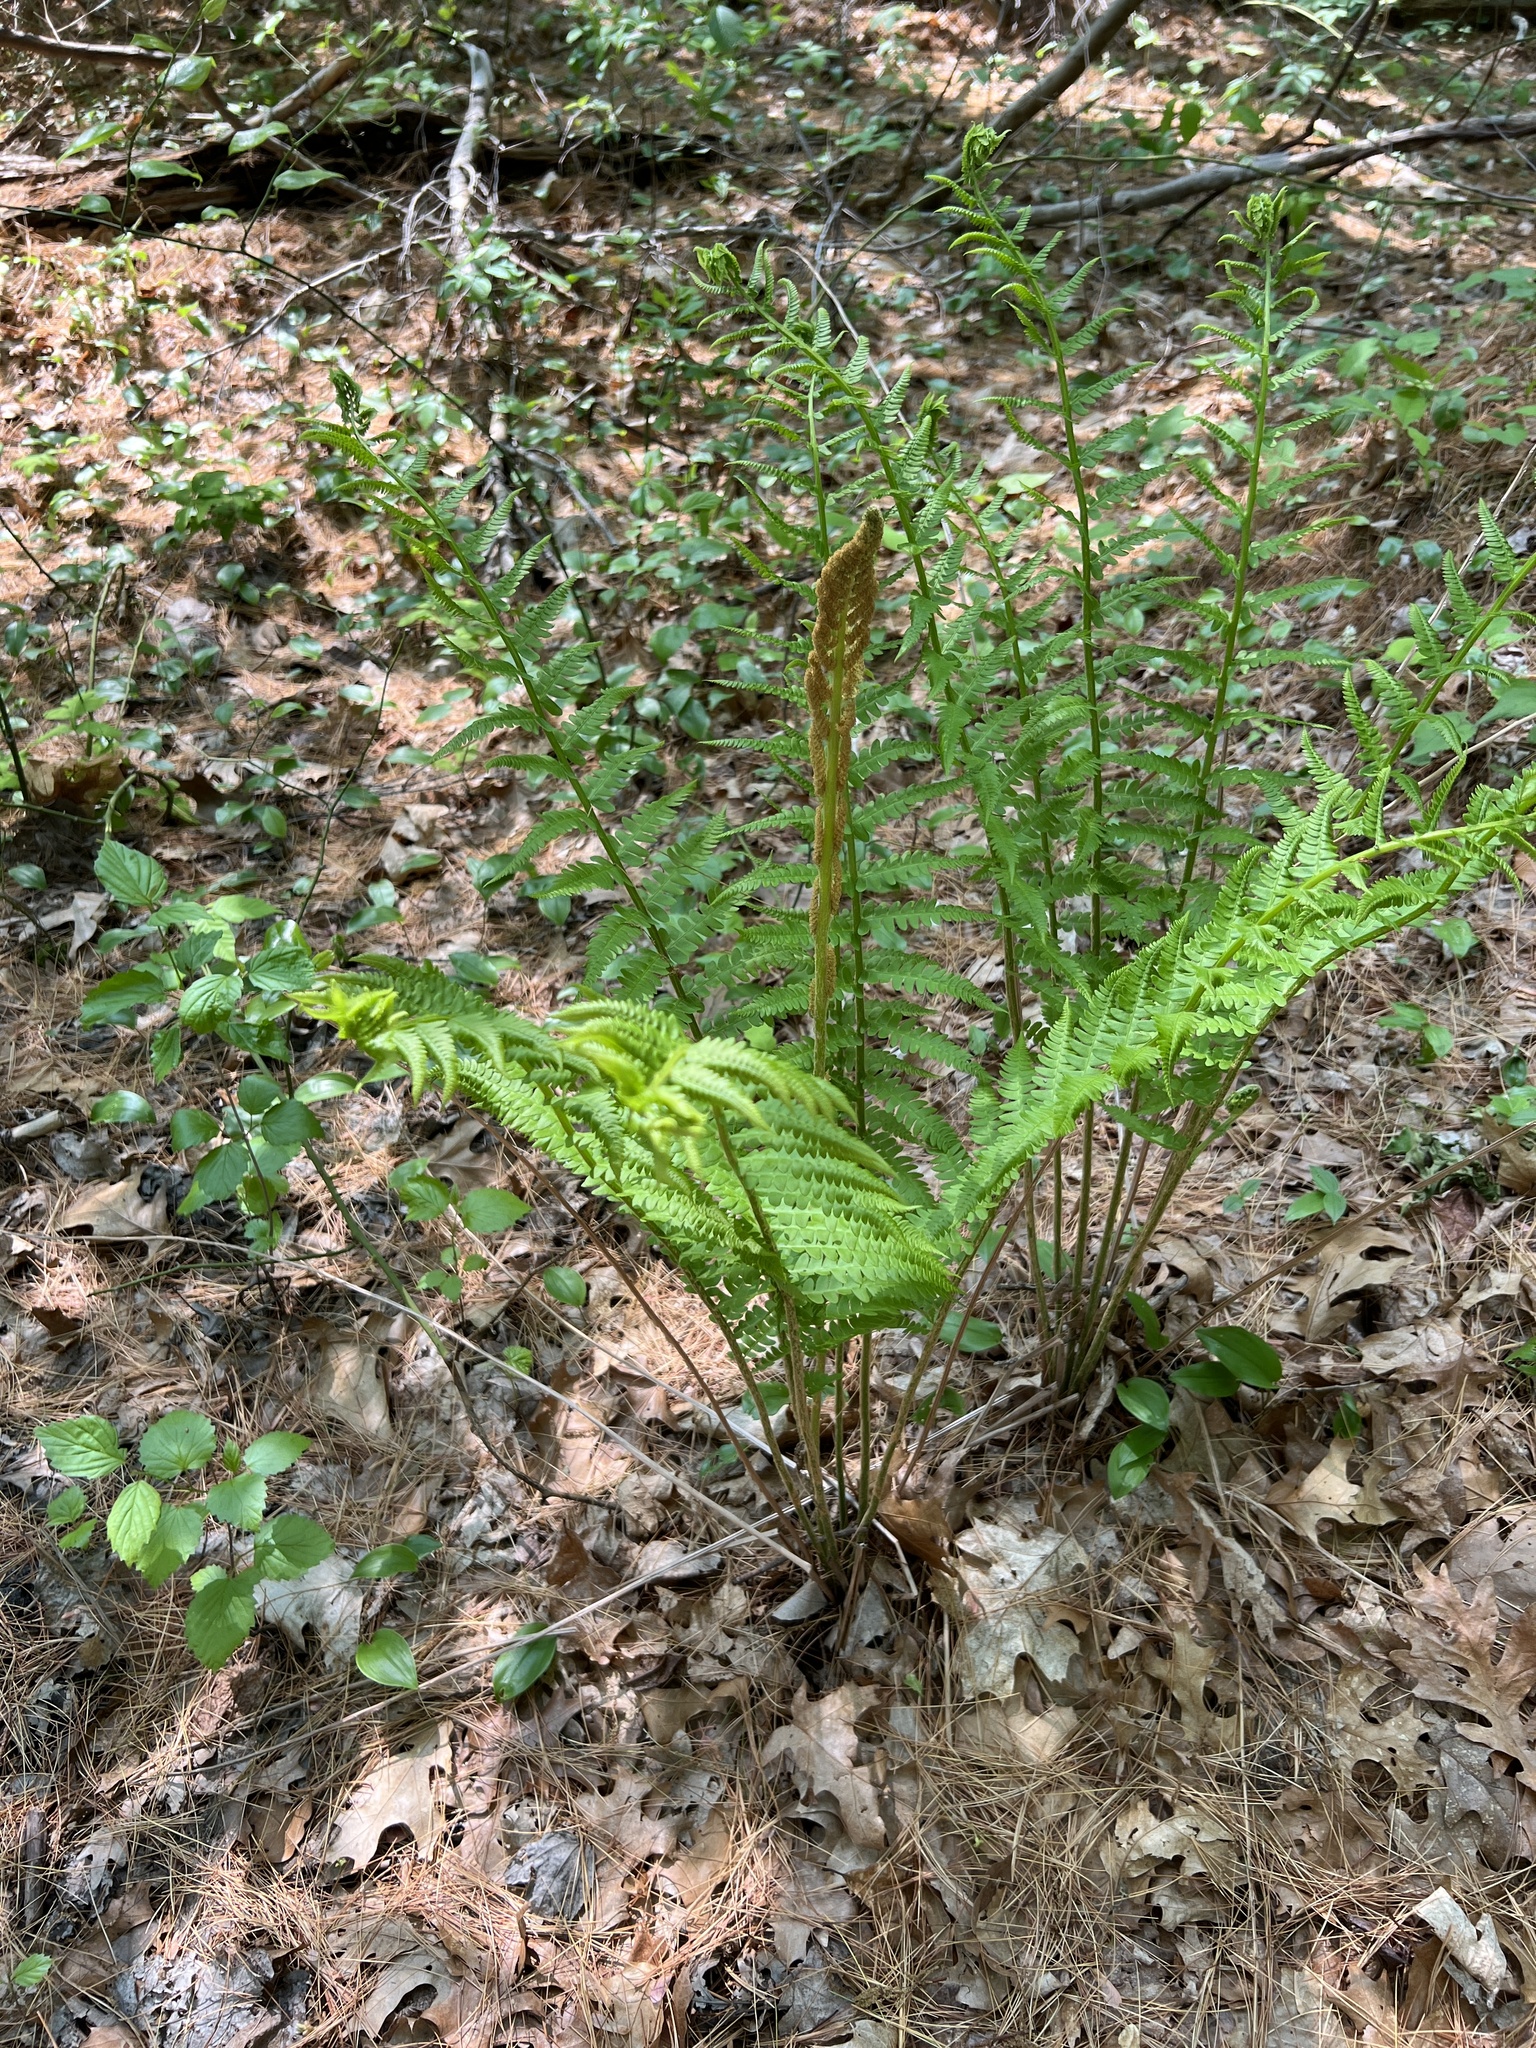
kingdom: Plantae
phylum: Tracheophyta
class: Polypodiopsida
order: Osmundales
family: Osmundaceae
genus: Osmundastrum
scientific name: Osmundastrum cinnamomeum
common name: Cinnamon fern
